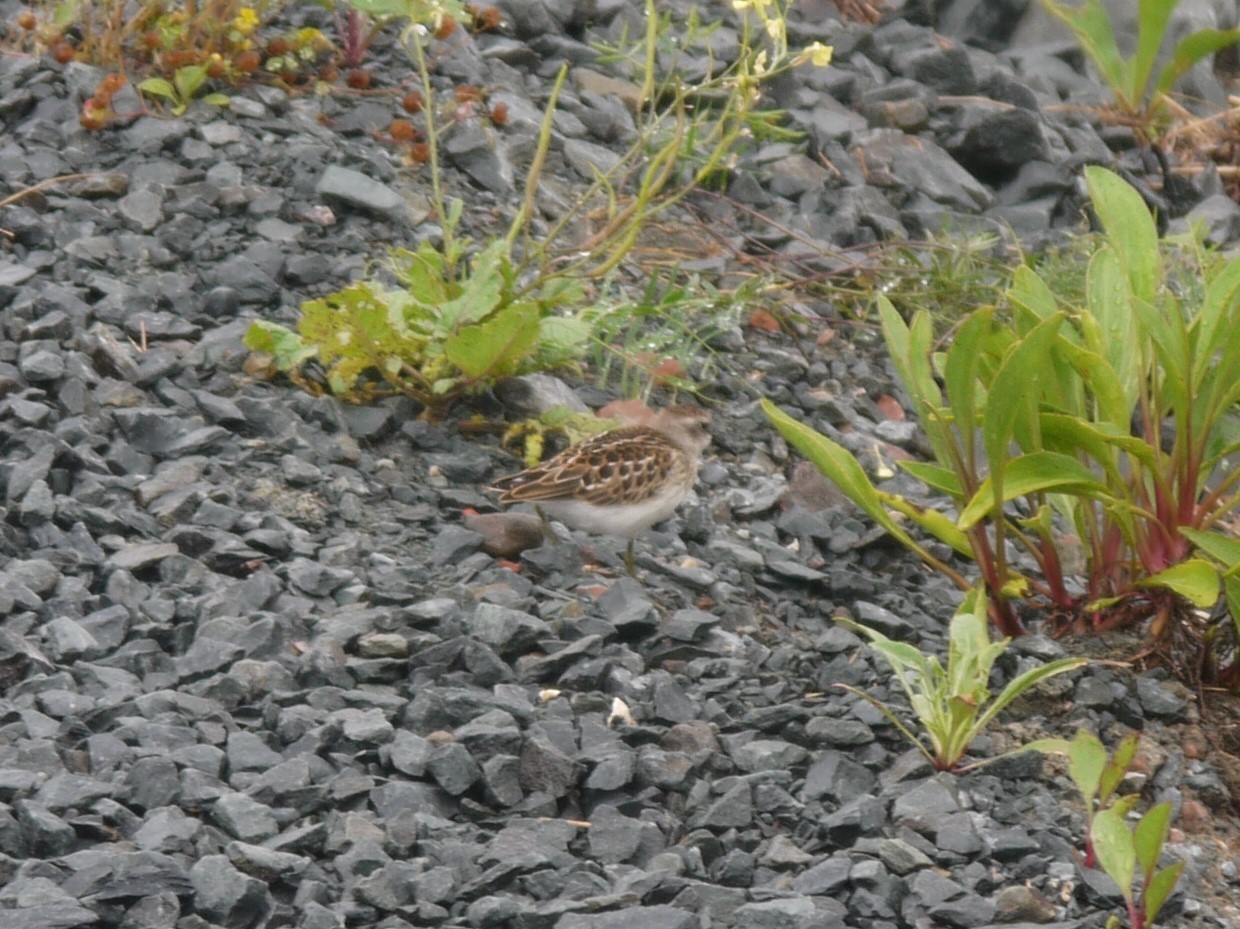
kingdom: Animalia
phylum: Chordata
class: Aves
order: Charadriiformes
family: Scolopacidae
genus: Calidris
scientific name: Calidris minutilla
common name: Least sandpiper
